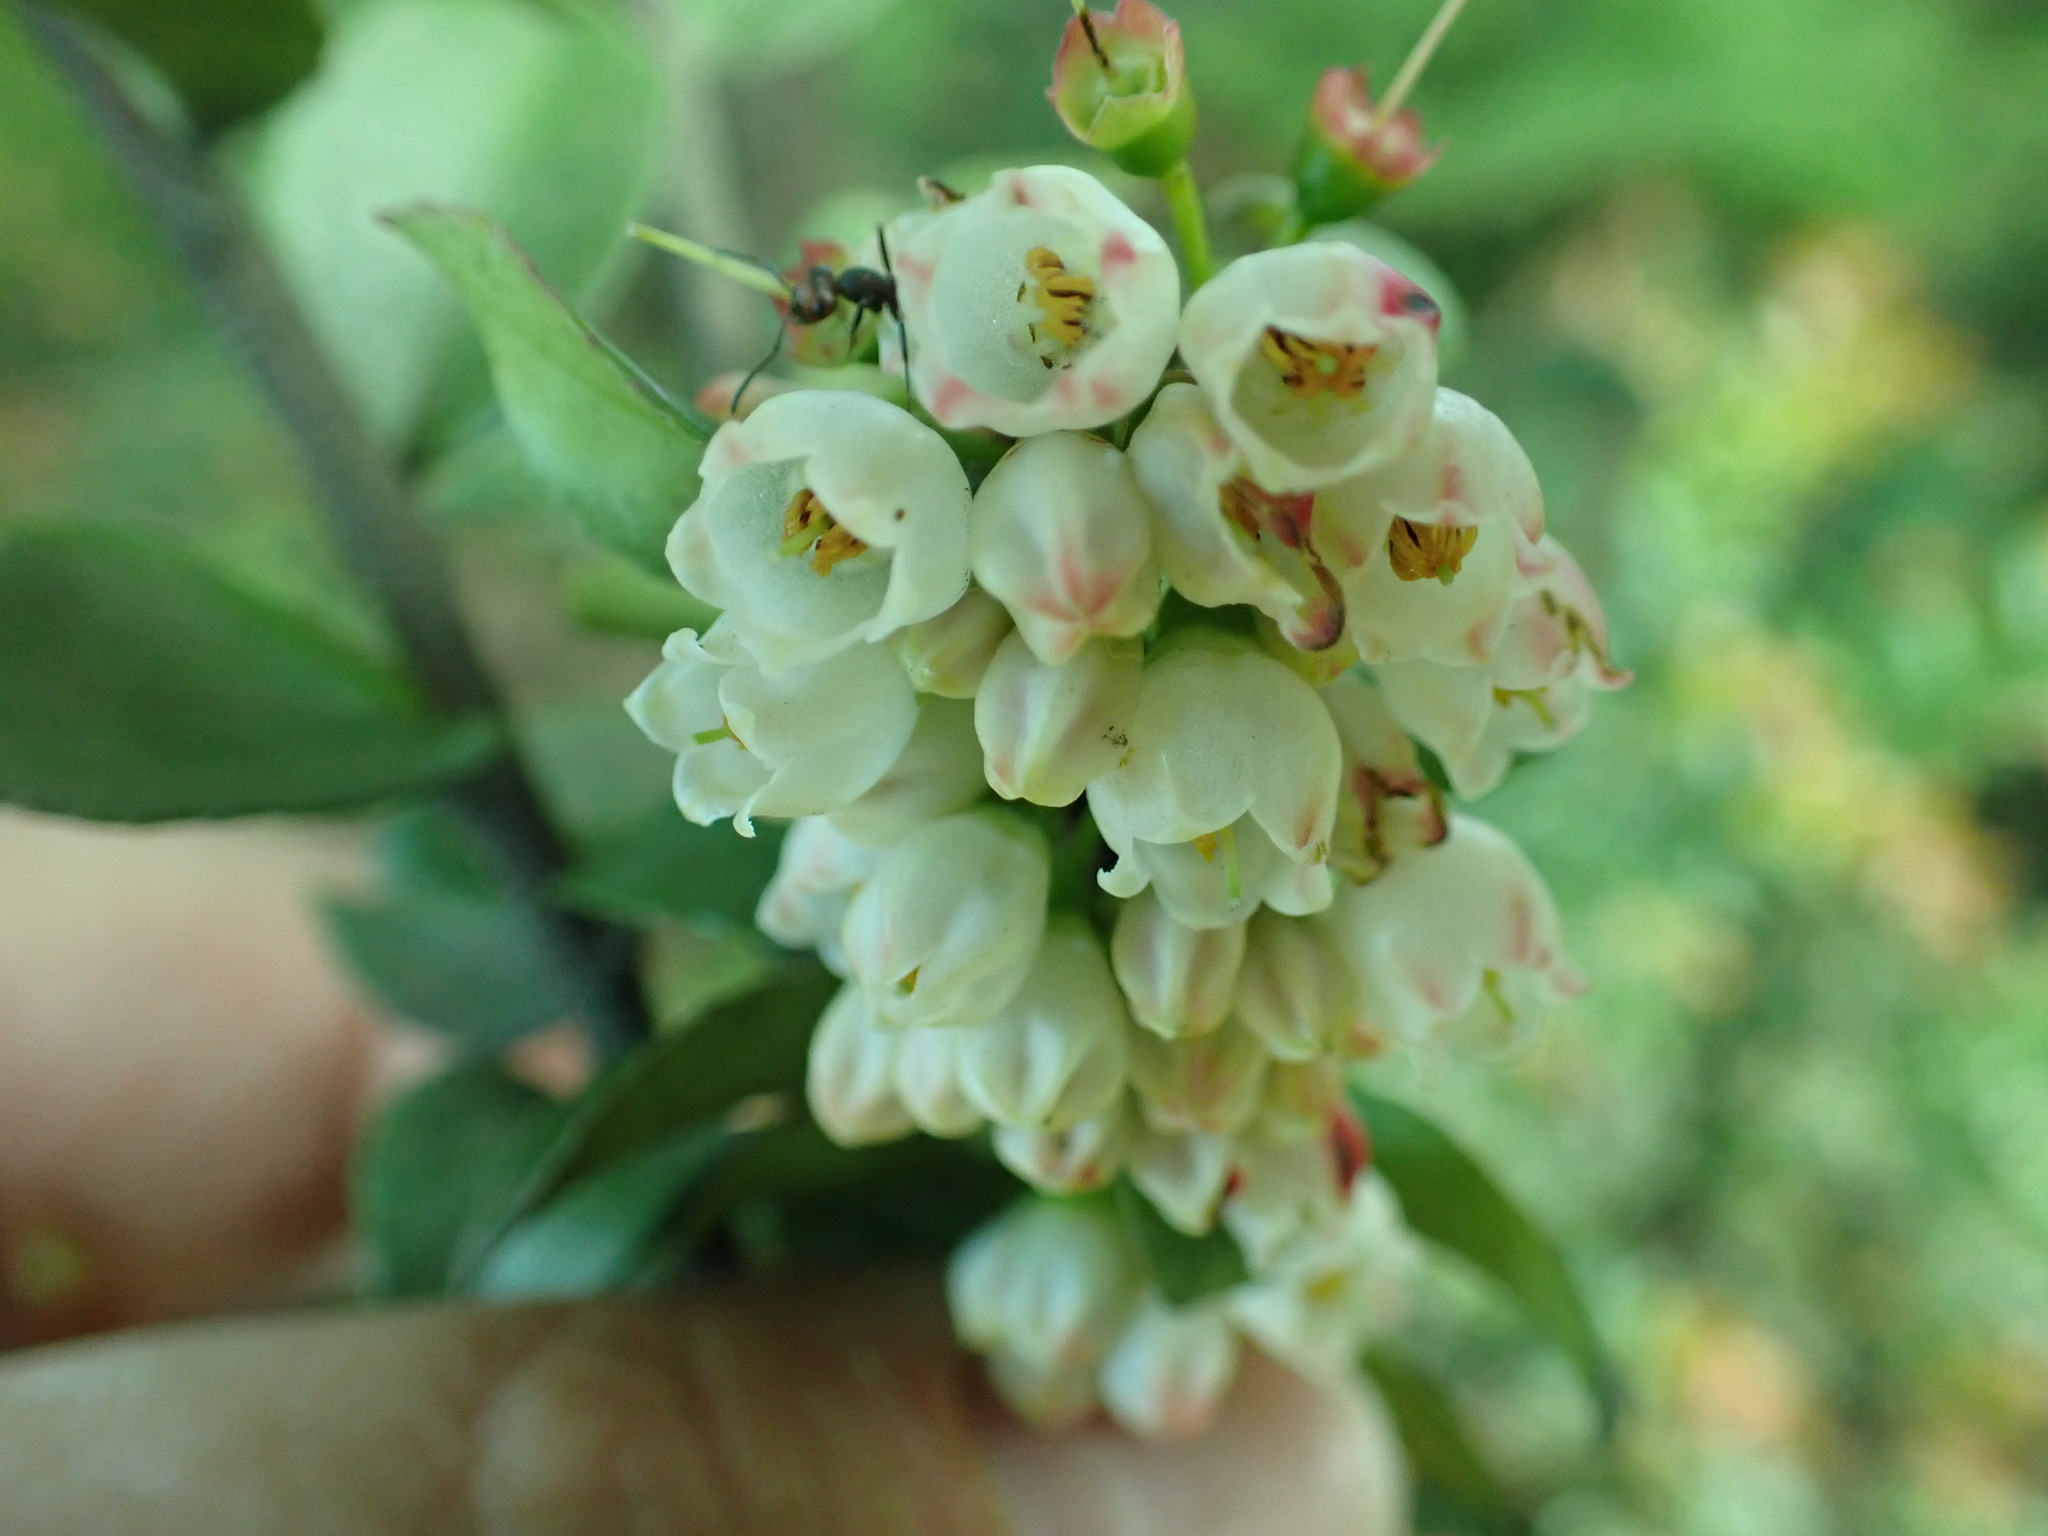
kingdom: Plantae
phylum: Tracheophyta
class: Magnoliopsida
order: Ericales
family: Ericaceae
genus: Vaccinium
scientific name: Vaccinium ovatum
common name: California-huckleberry
